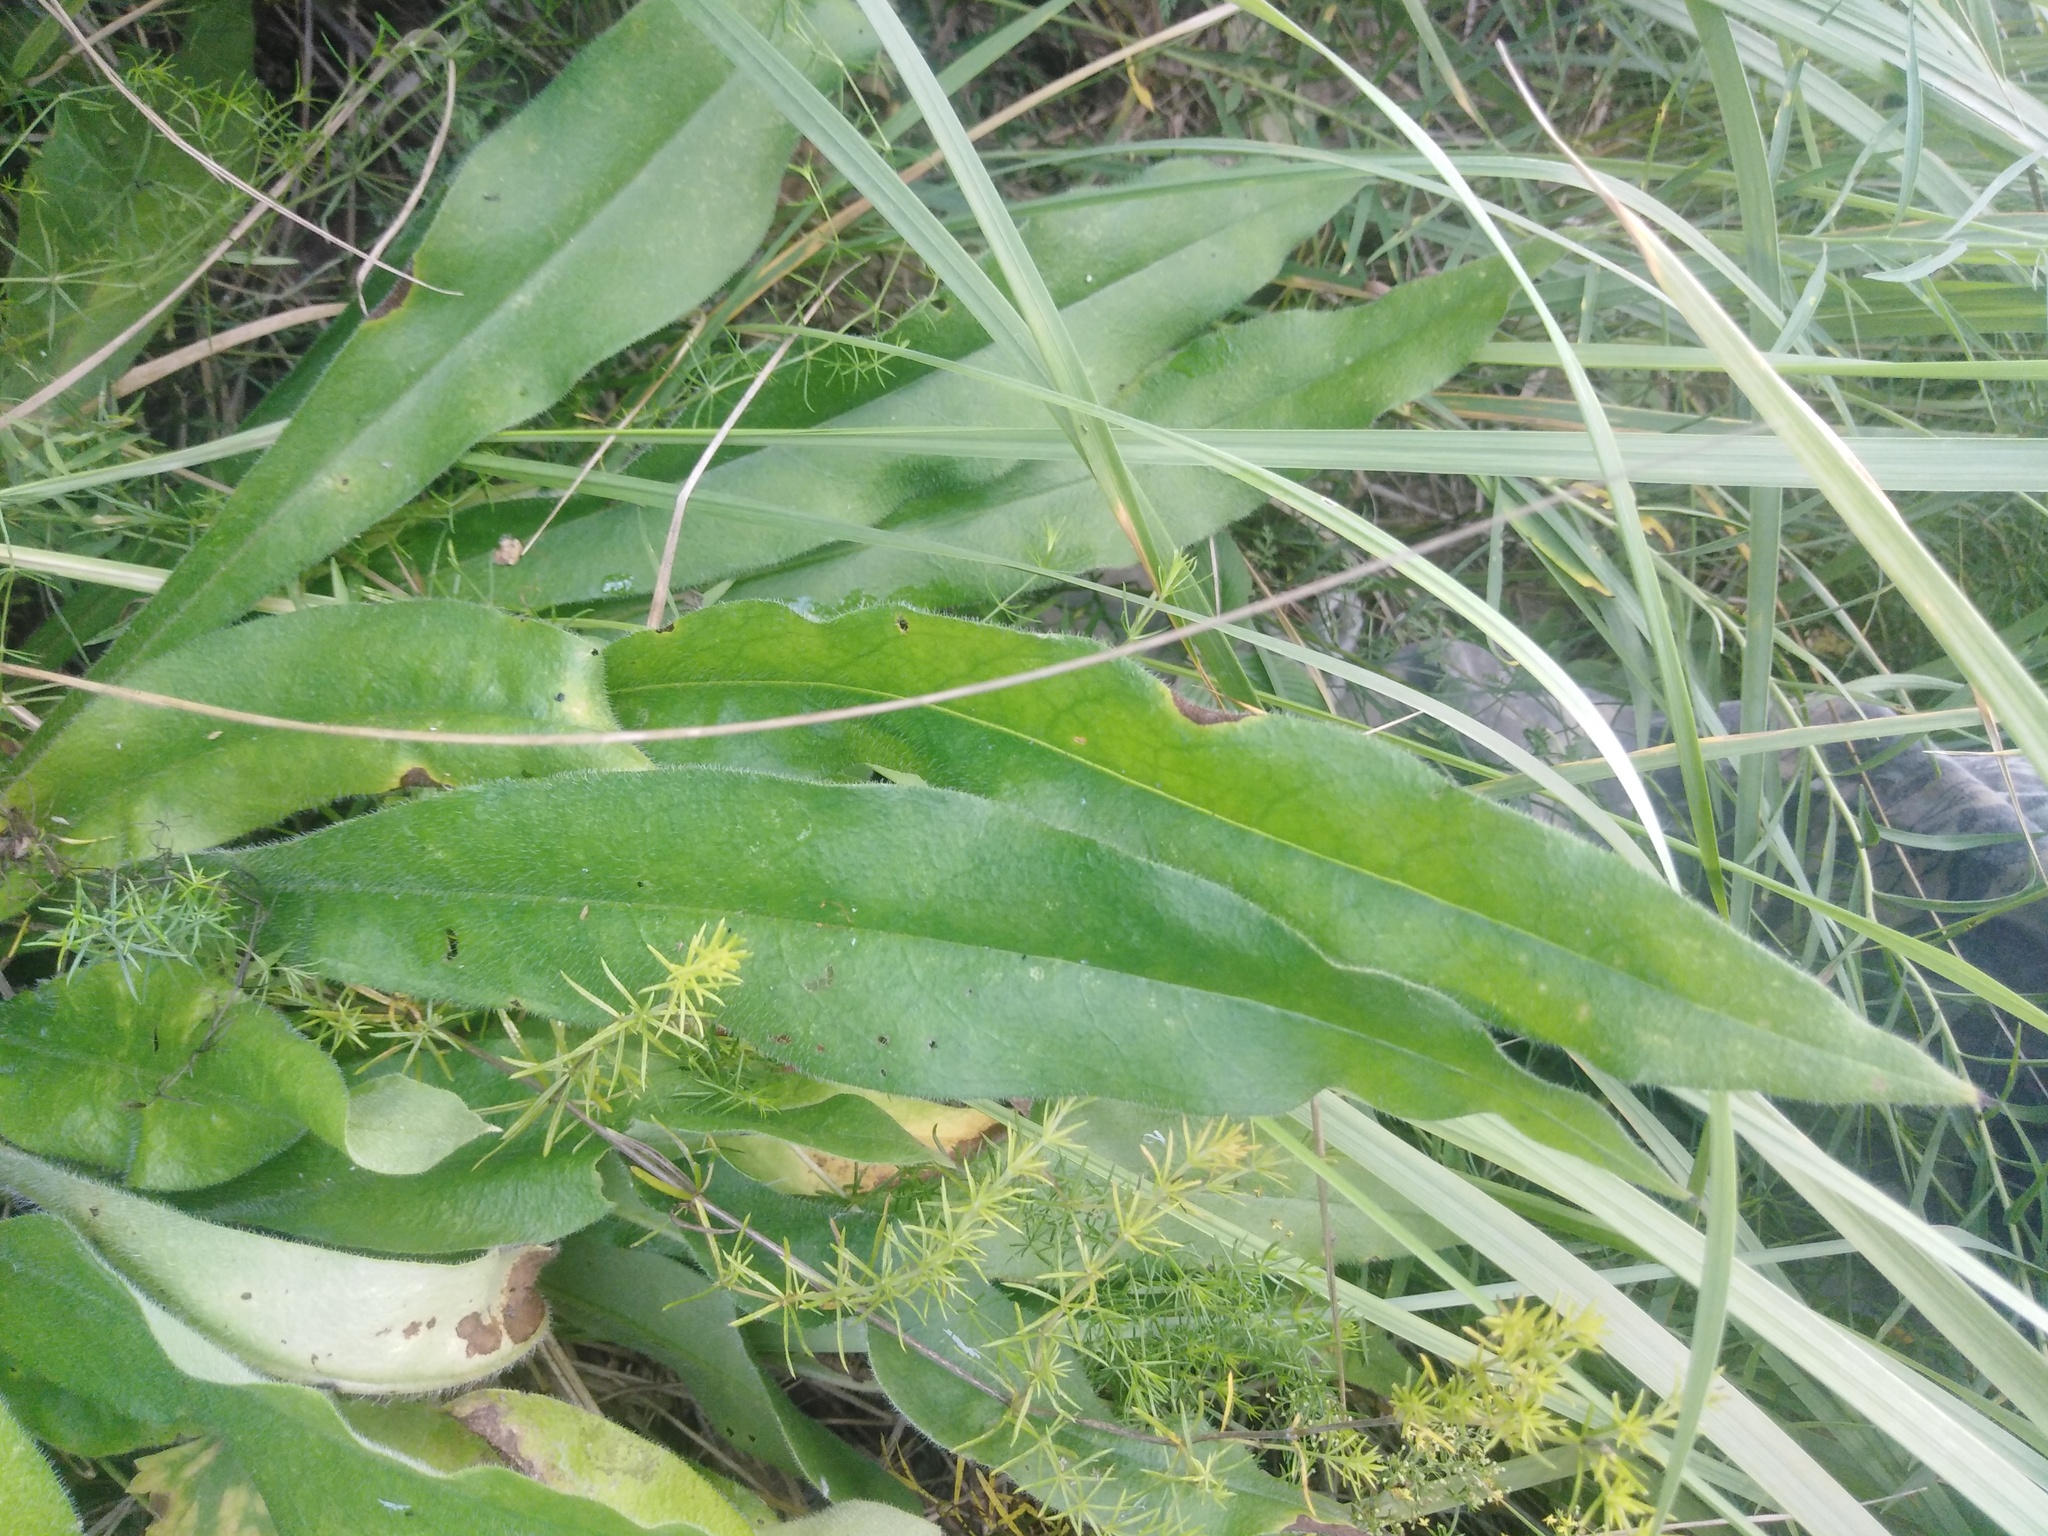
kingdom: Plantae
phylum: Tracheophyta
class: Magnoliopsida
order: Boraginales
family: Boraginaceae
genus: Pulmonaria
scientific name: Pulmonaria angustifolia
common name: Blue cowslip
